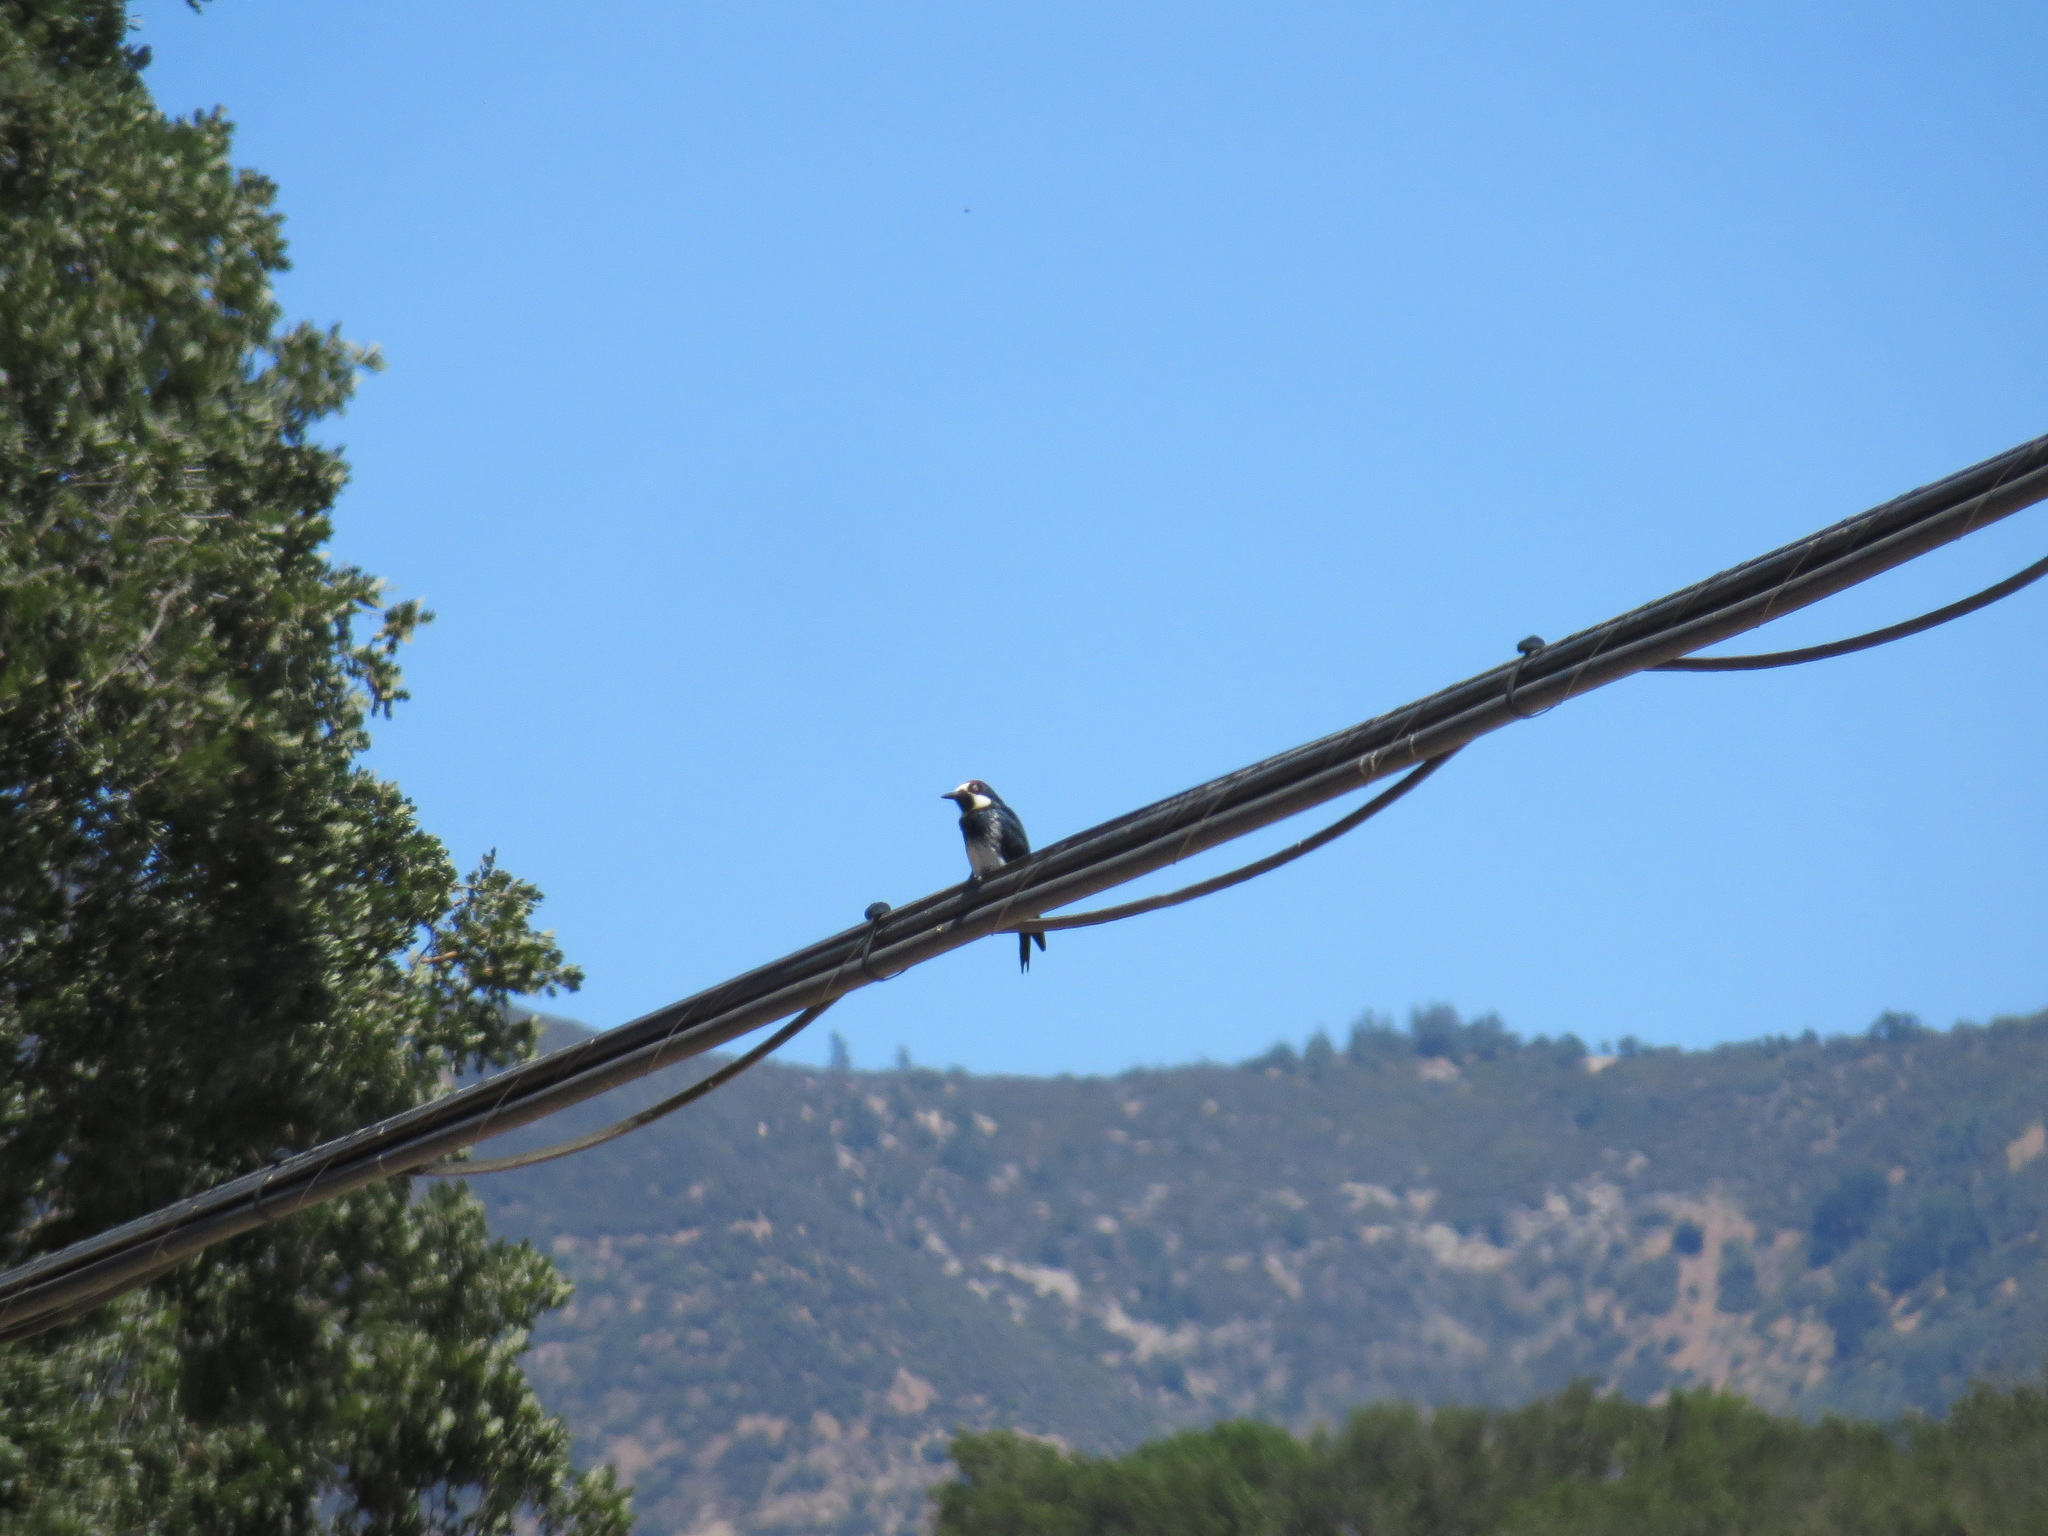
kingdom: Animalia
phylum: Chordata
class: Aves
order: Piciformes
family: Picidae
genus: Melanerpes
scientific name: Melanerpes formicivorus
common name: Acorn woodpecker
